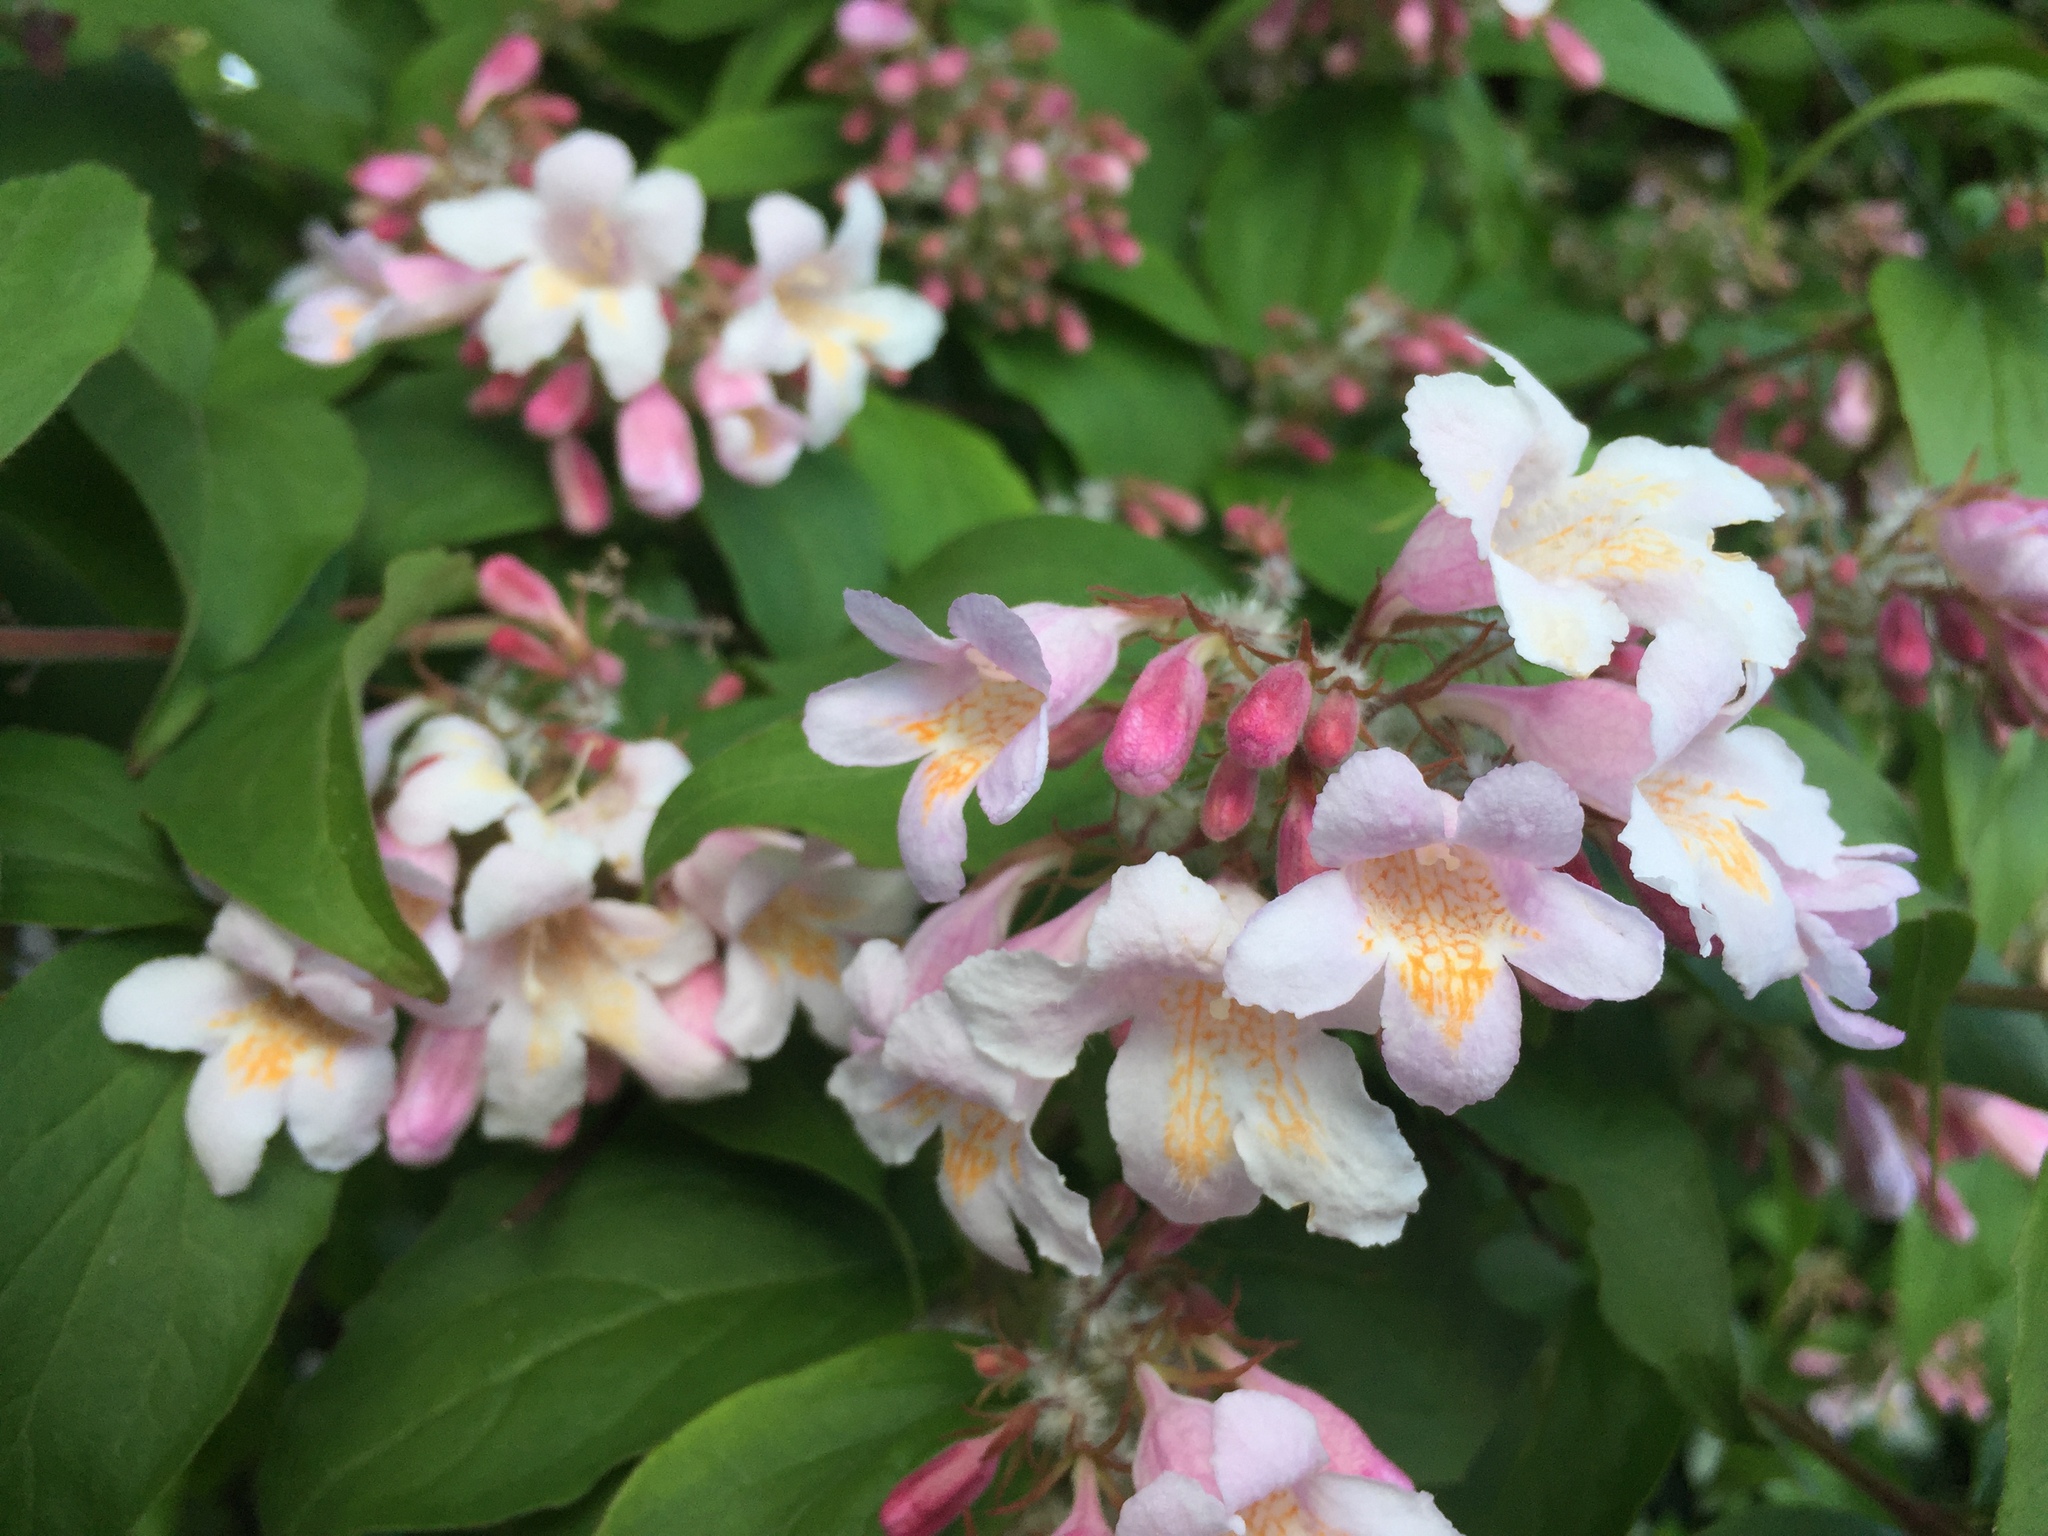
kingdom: Plantae
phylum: Tracheophyta
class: Magnoliopsida
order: Dipsacales
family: Caprifoliaceae
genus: Kolkwitzia
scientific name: Kolkwitzia amabilis
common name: Beautybush
